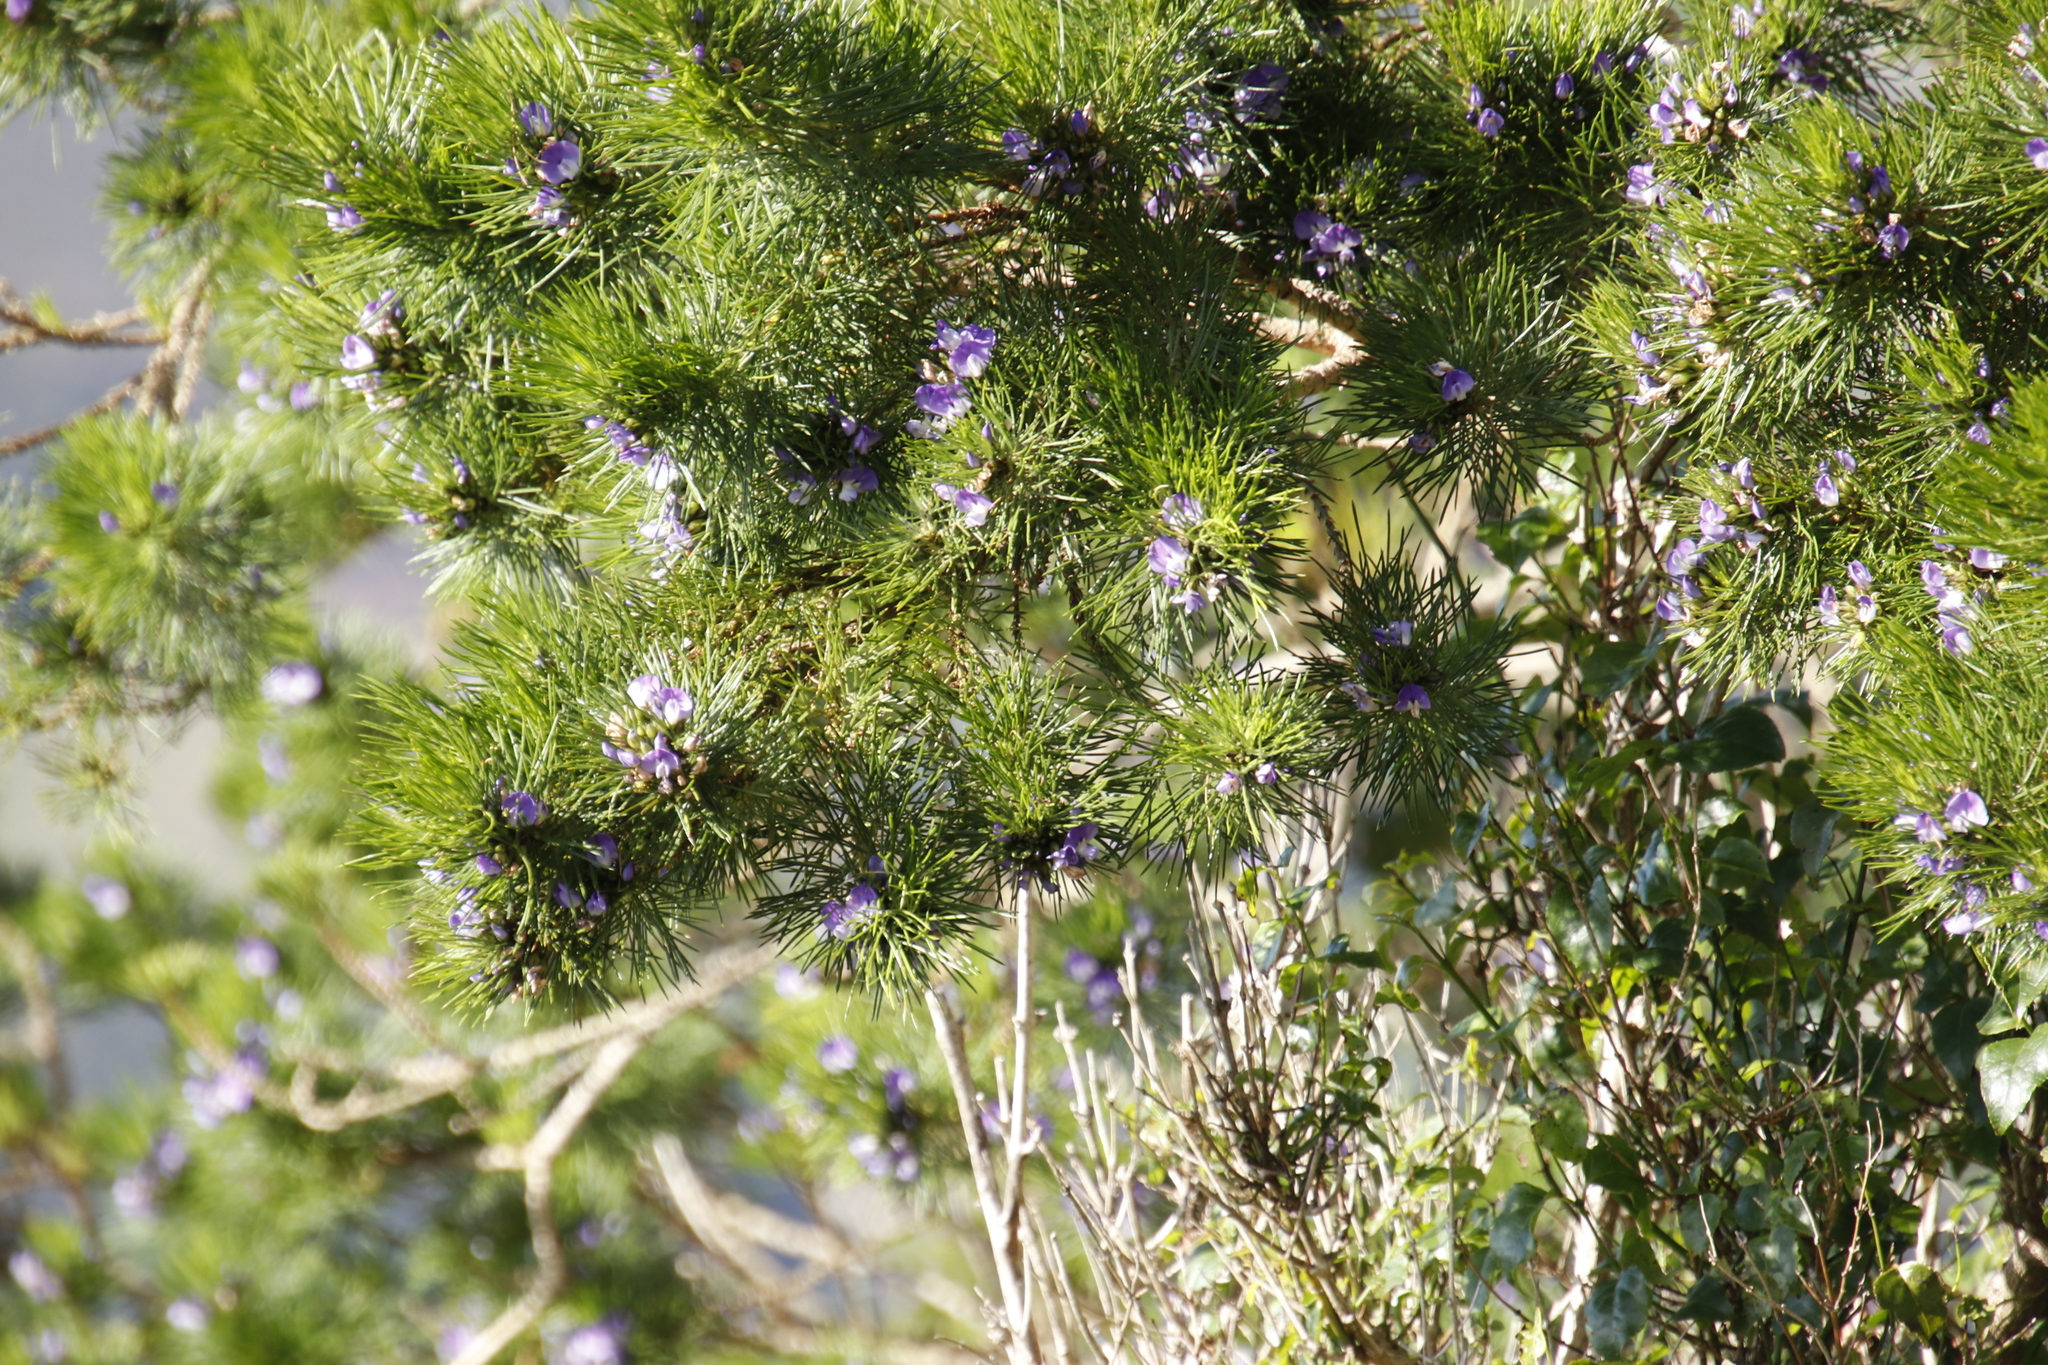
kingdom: Plantae
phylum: Tracheophyta
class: Magnoliopsida
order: Fabales
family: Fabaceae
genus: Psoralea
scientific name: Psoralea pinnata
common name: African scurfpea
